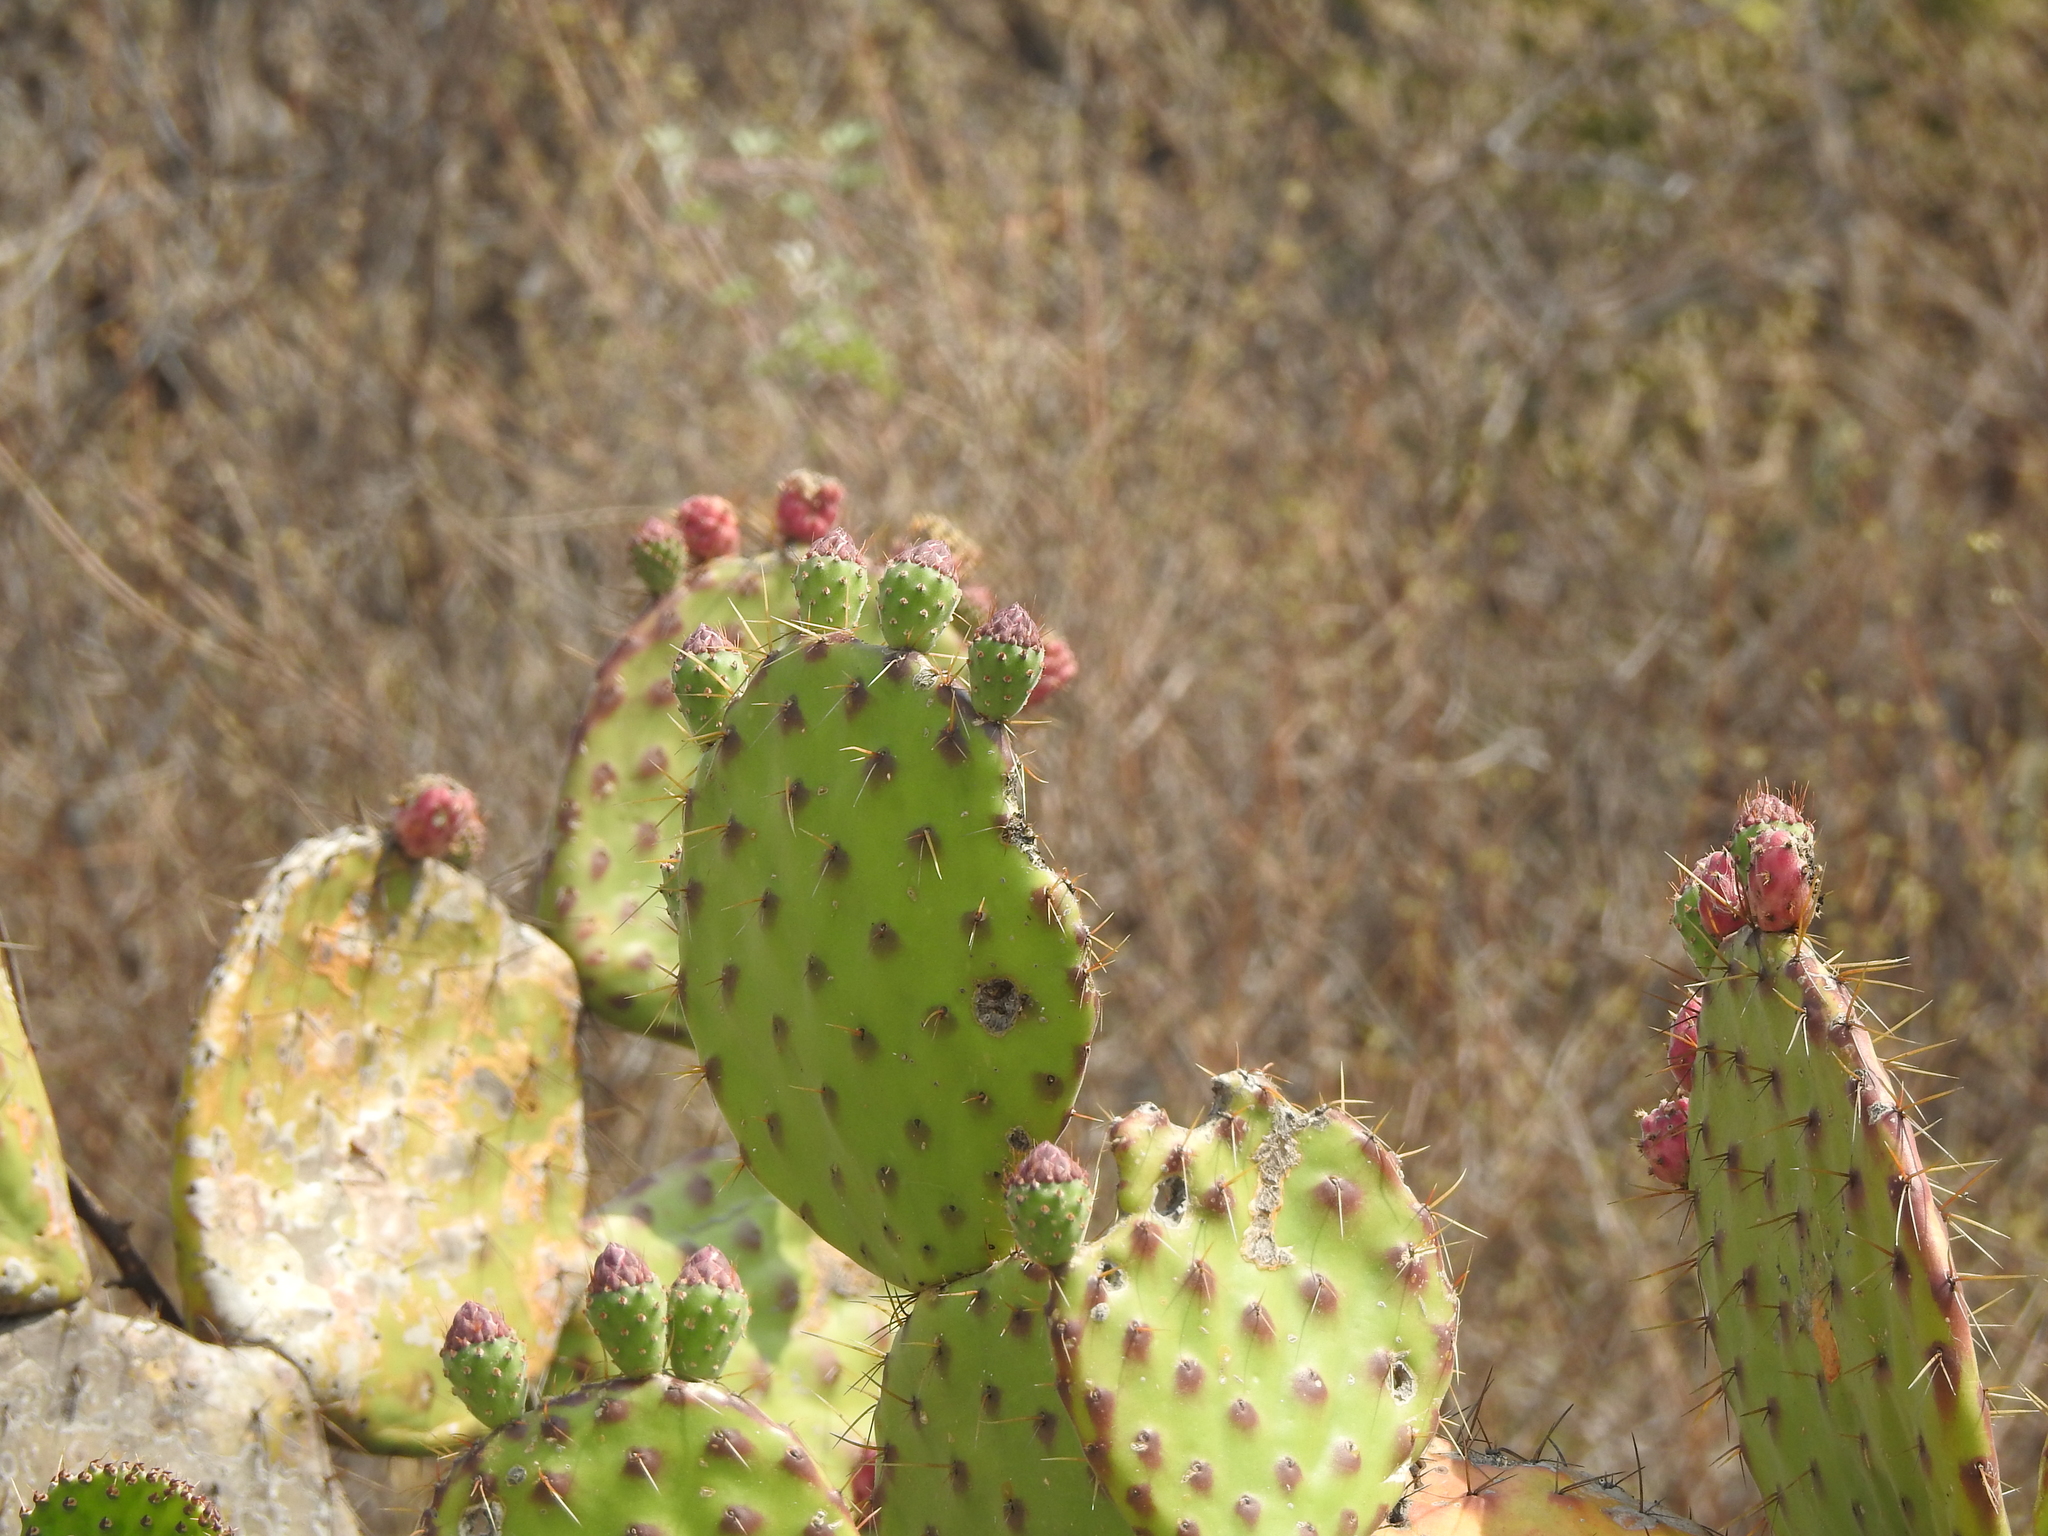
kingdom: Plantae
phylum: Tracheophyta
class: Magnoliopsida
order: Caryophyllales
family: Cactaceae
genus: Opuntia
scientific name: Opuntia depressa
